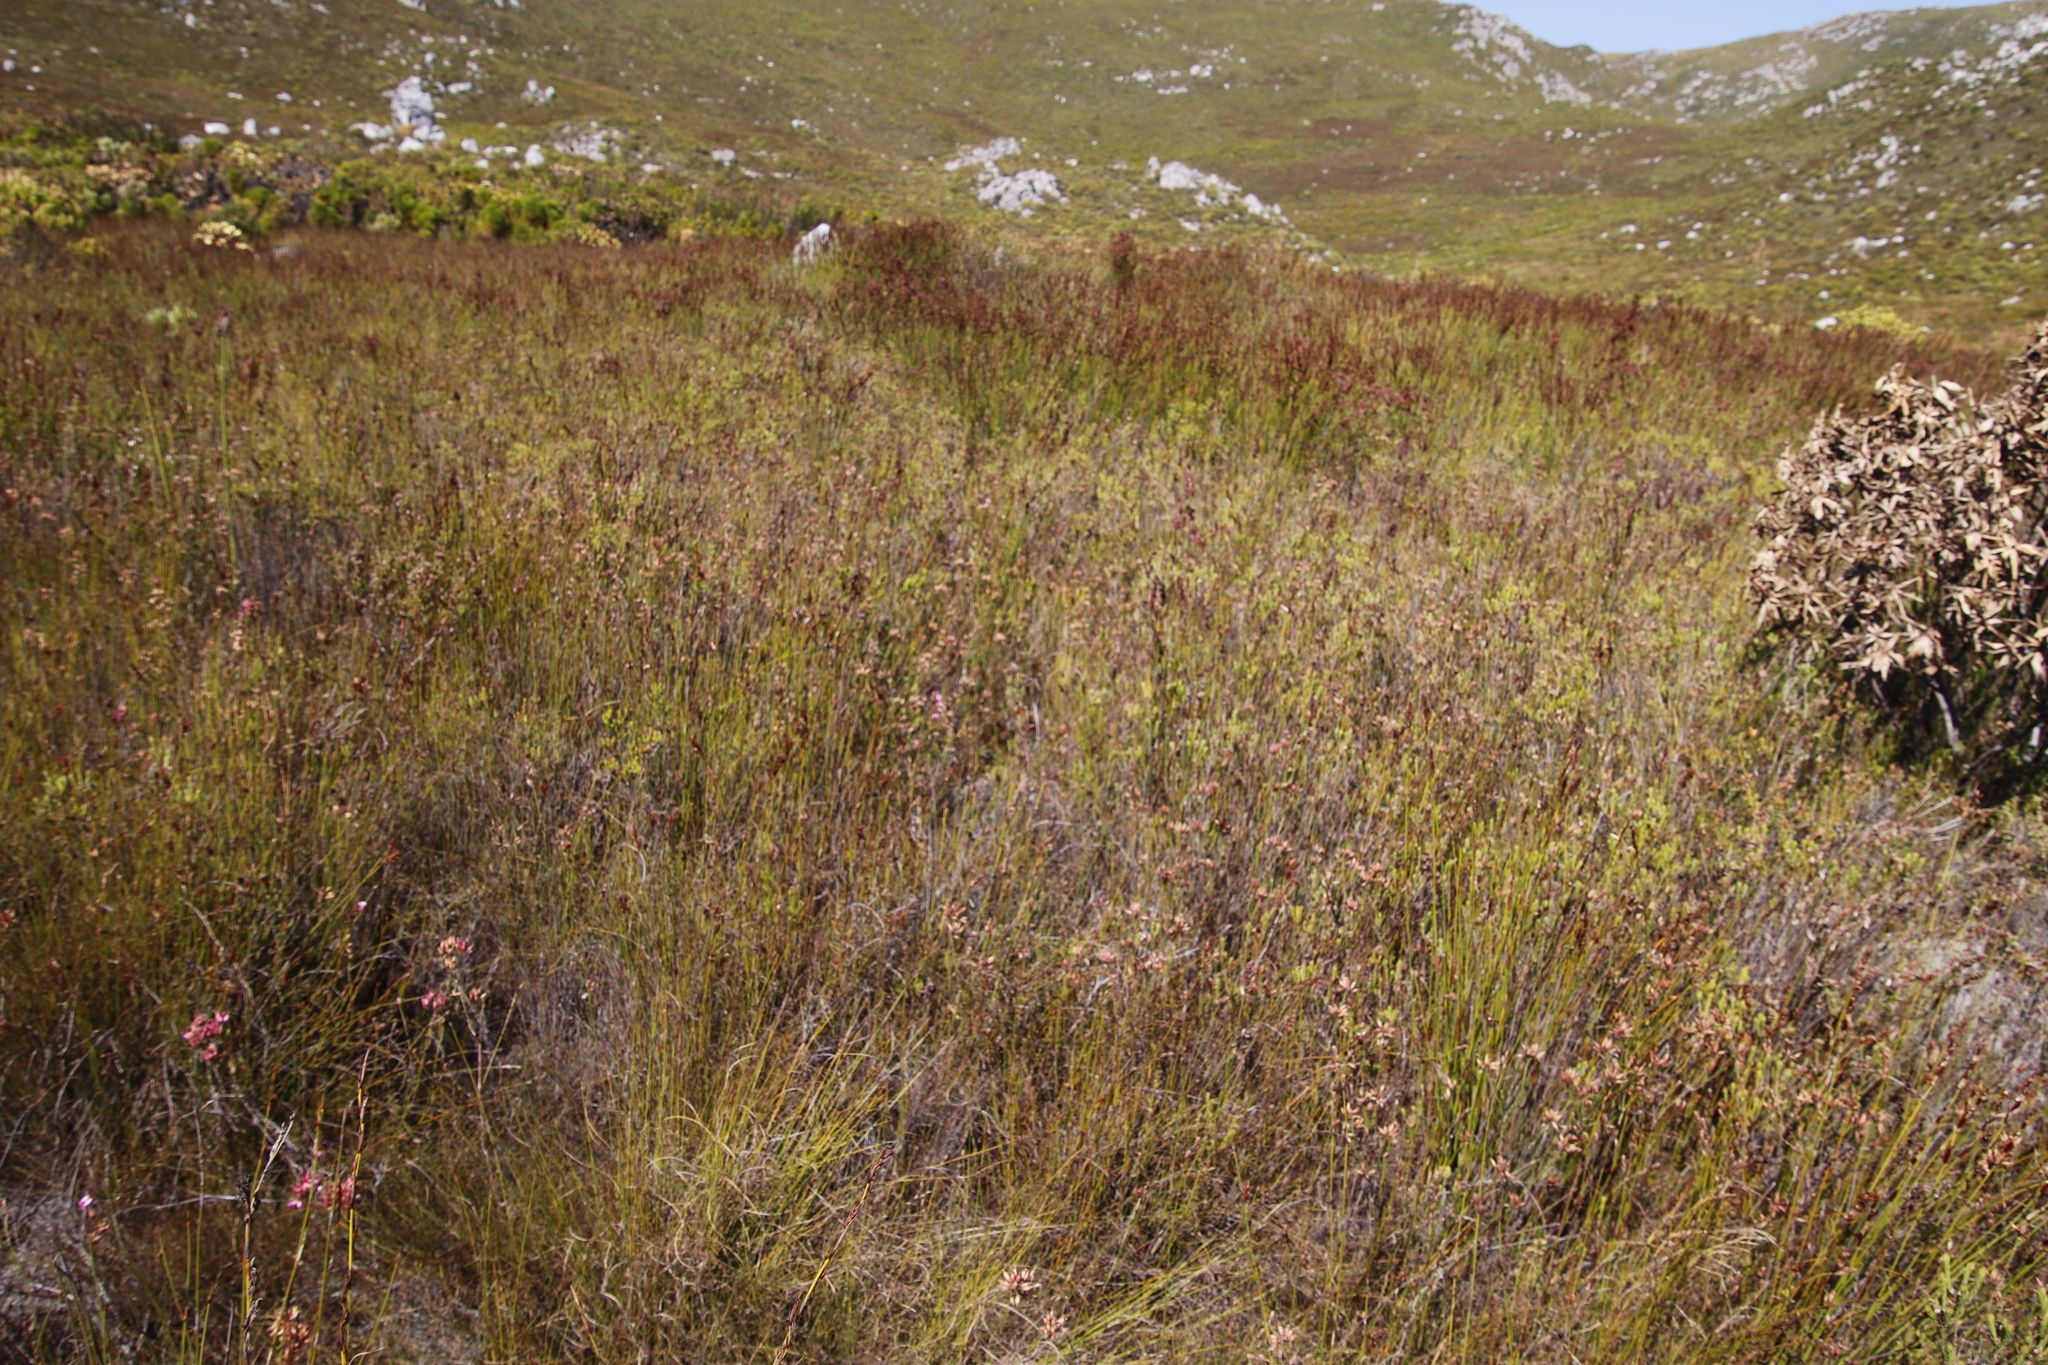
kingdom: Plantae
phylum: Tracheophyta
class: Magnoliopsida
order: Ericales
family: Ericaceae
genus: Erica
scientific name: Erica cristata
